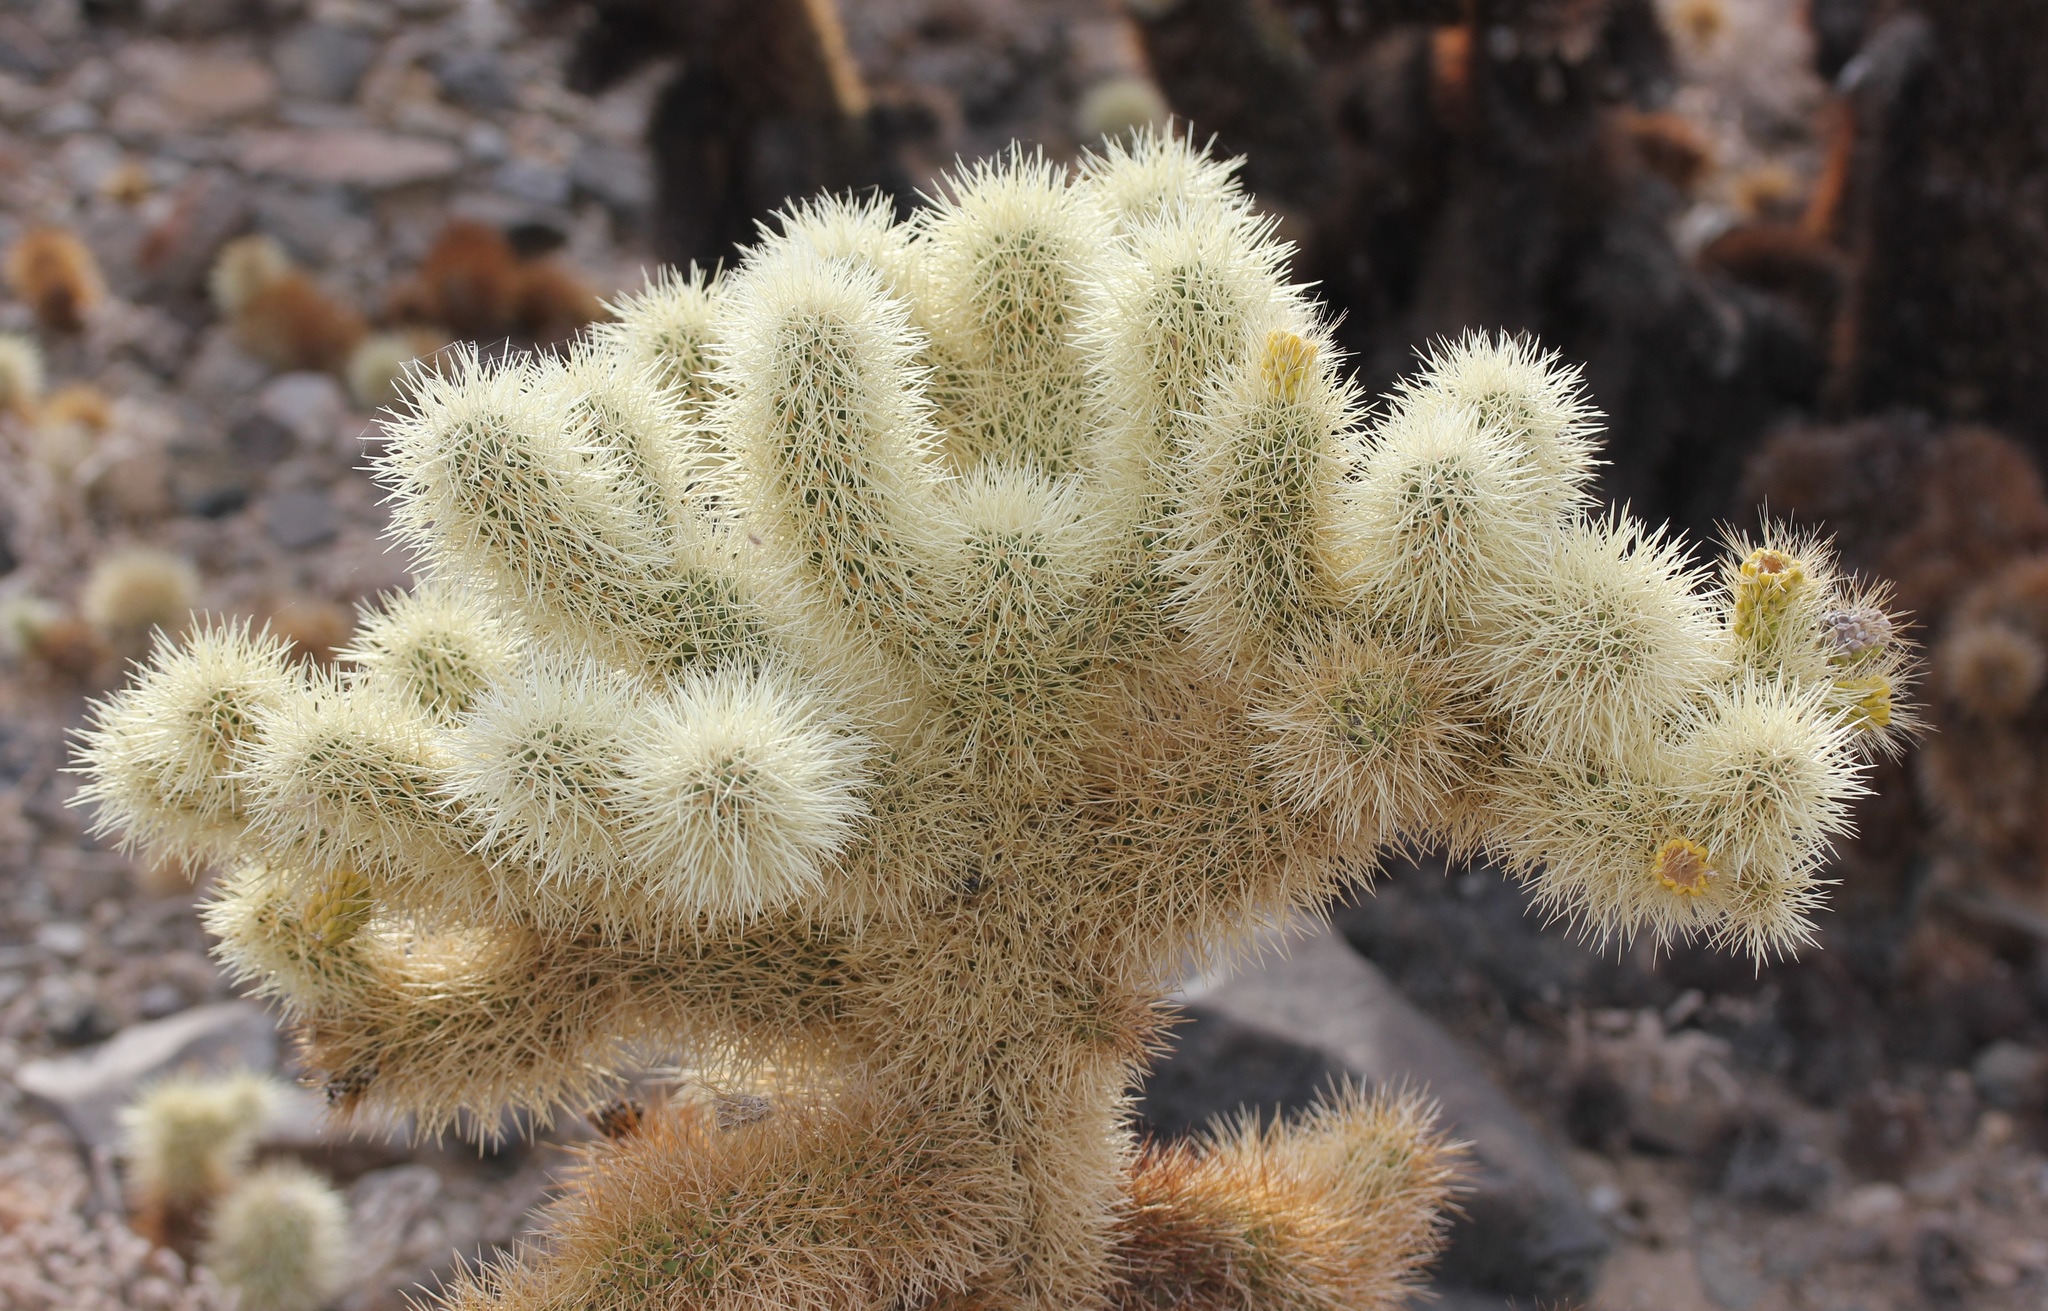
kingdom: Plantae
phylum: Tracheophyta
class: Magnoliopsida
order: Caryophyllales
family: Cactaceae
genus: Cylindropuntia
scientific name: Cylindropuntia fosbergii
